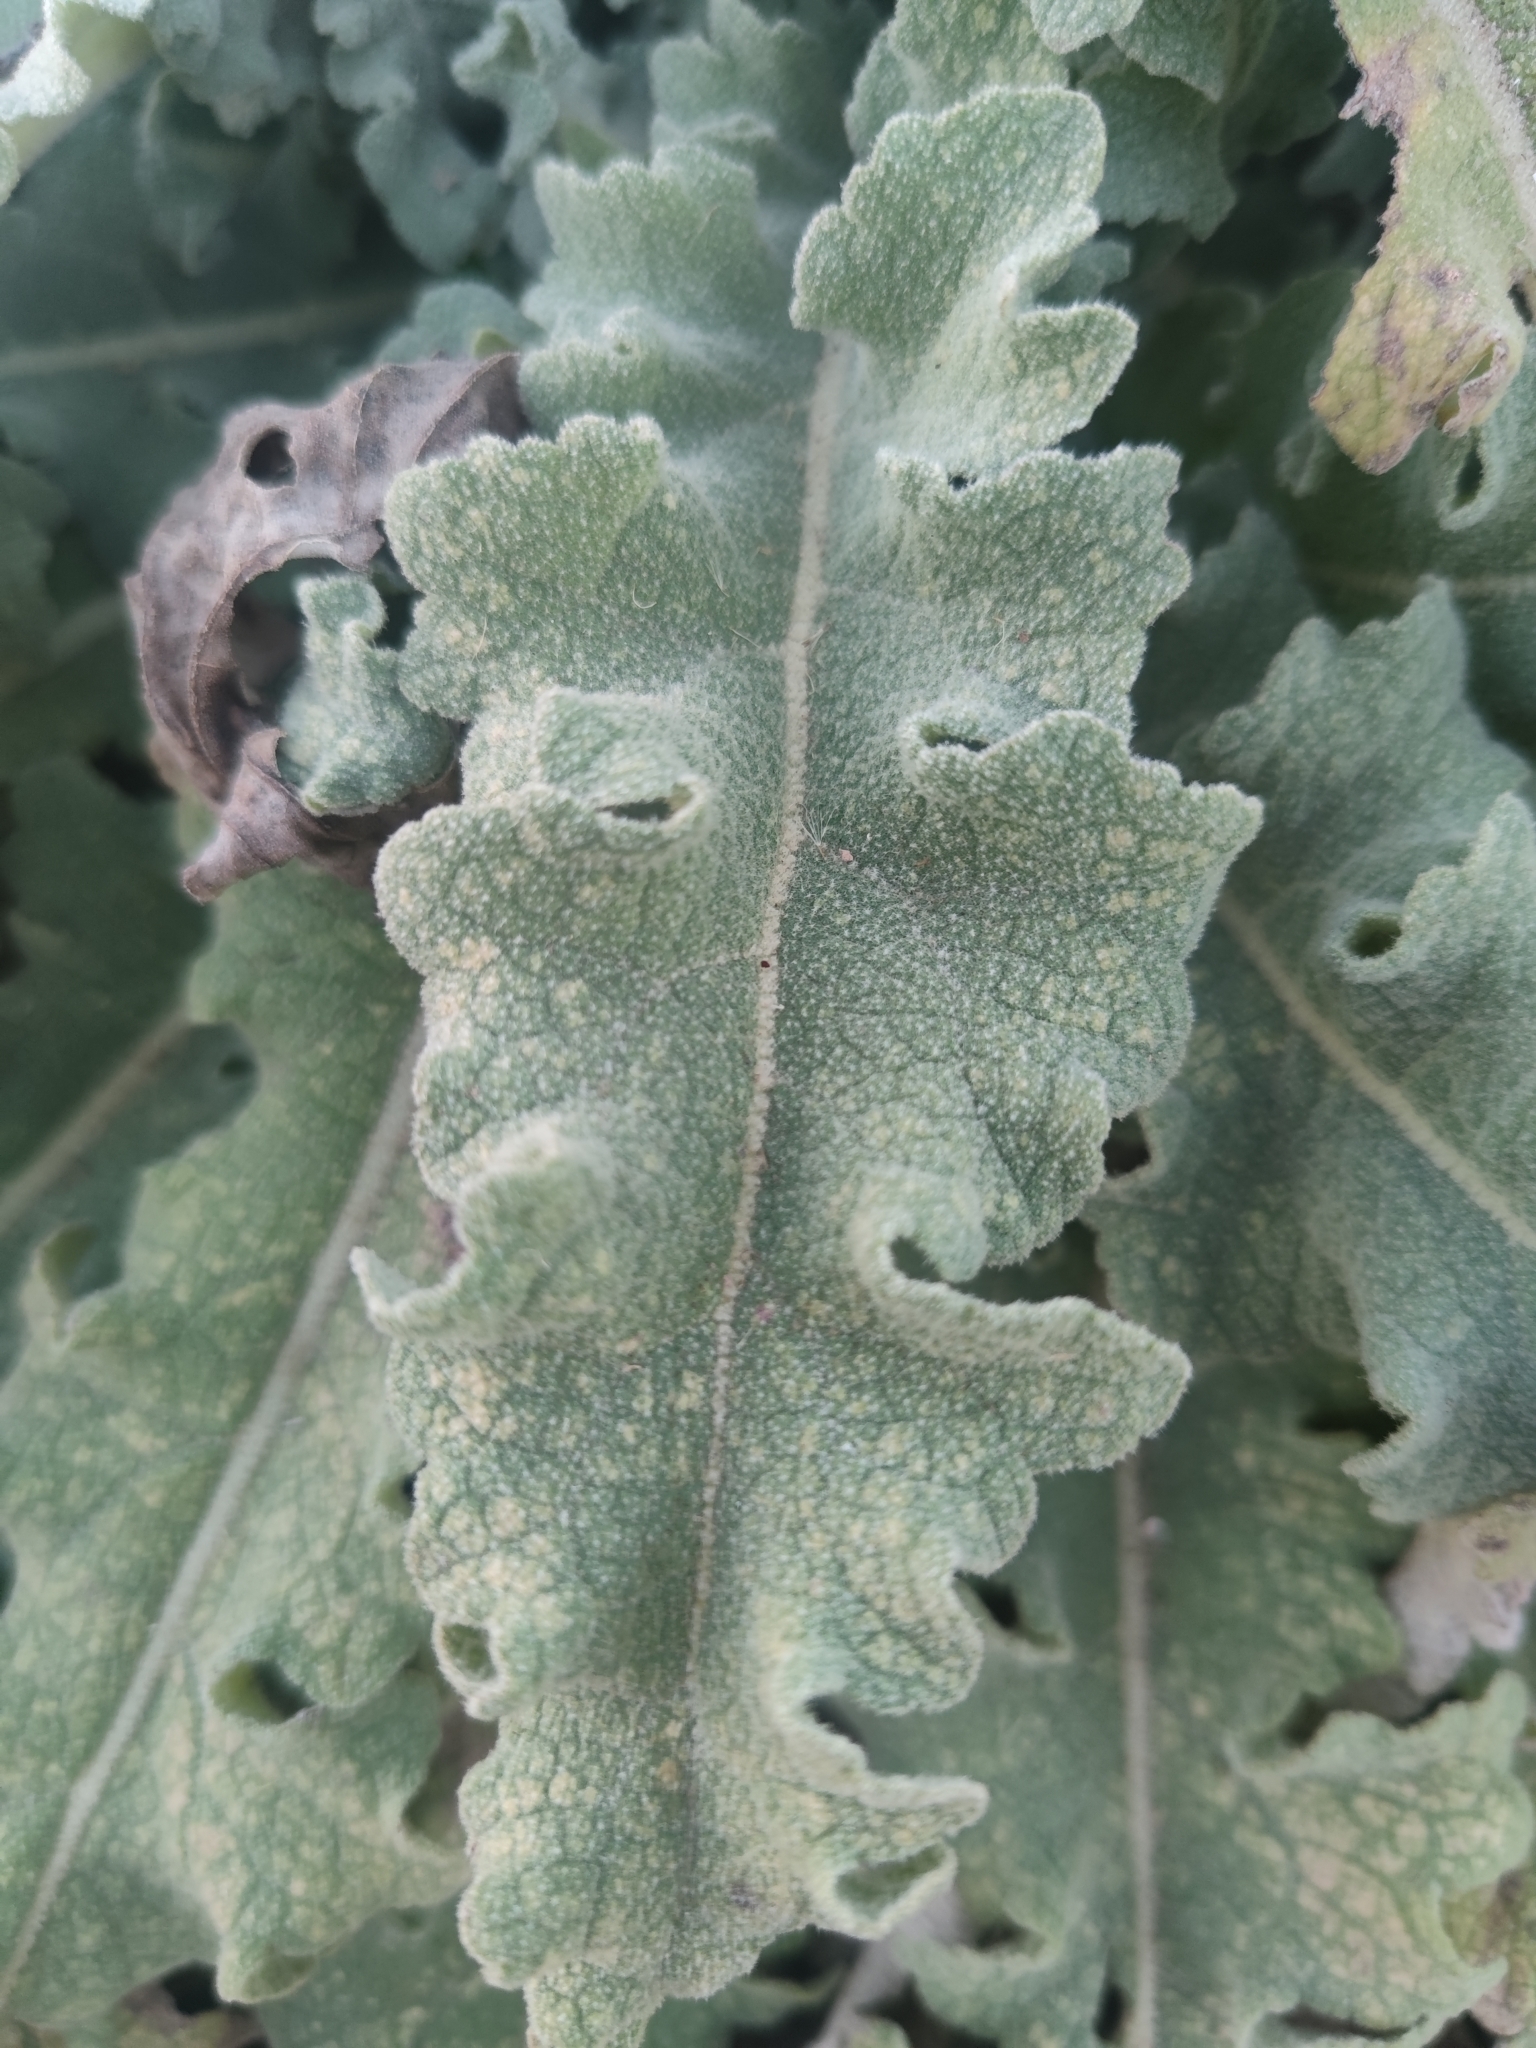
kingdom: Plantae
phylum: Tracheophyta
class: Magnoliopsida
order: Lamiales
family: Scrophulariaceae
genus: Verbascum
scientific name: Verbascum sinuatum
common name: Wavyleaf mullein
